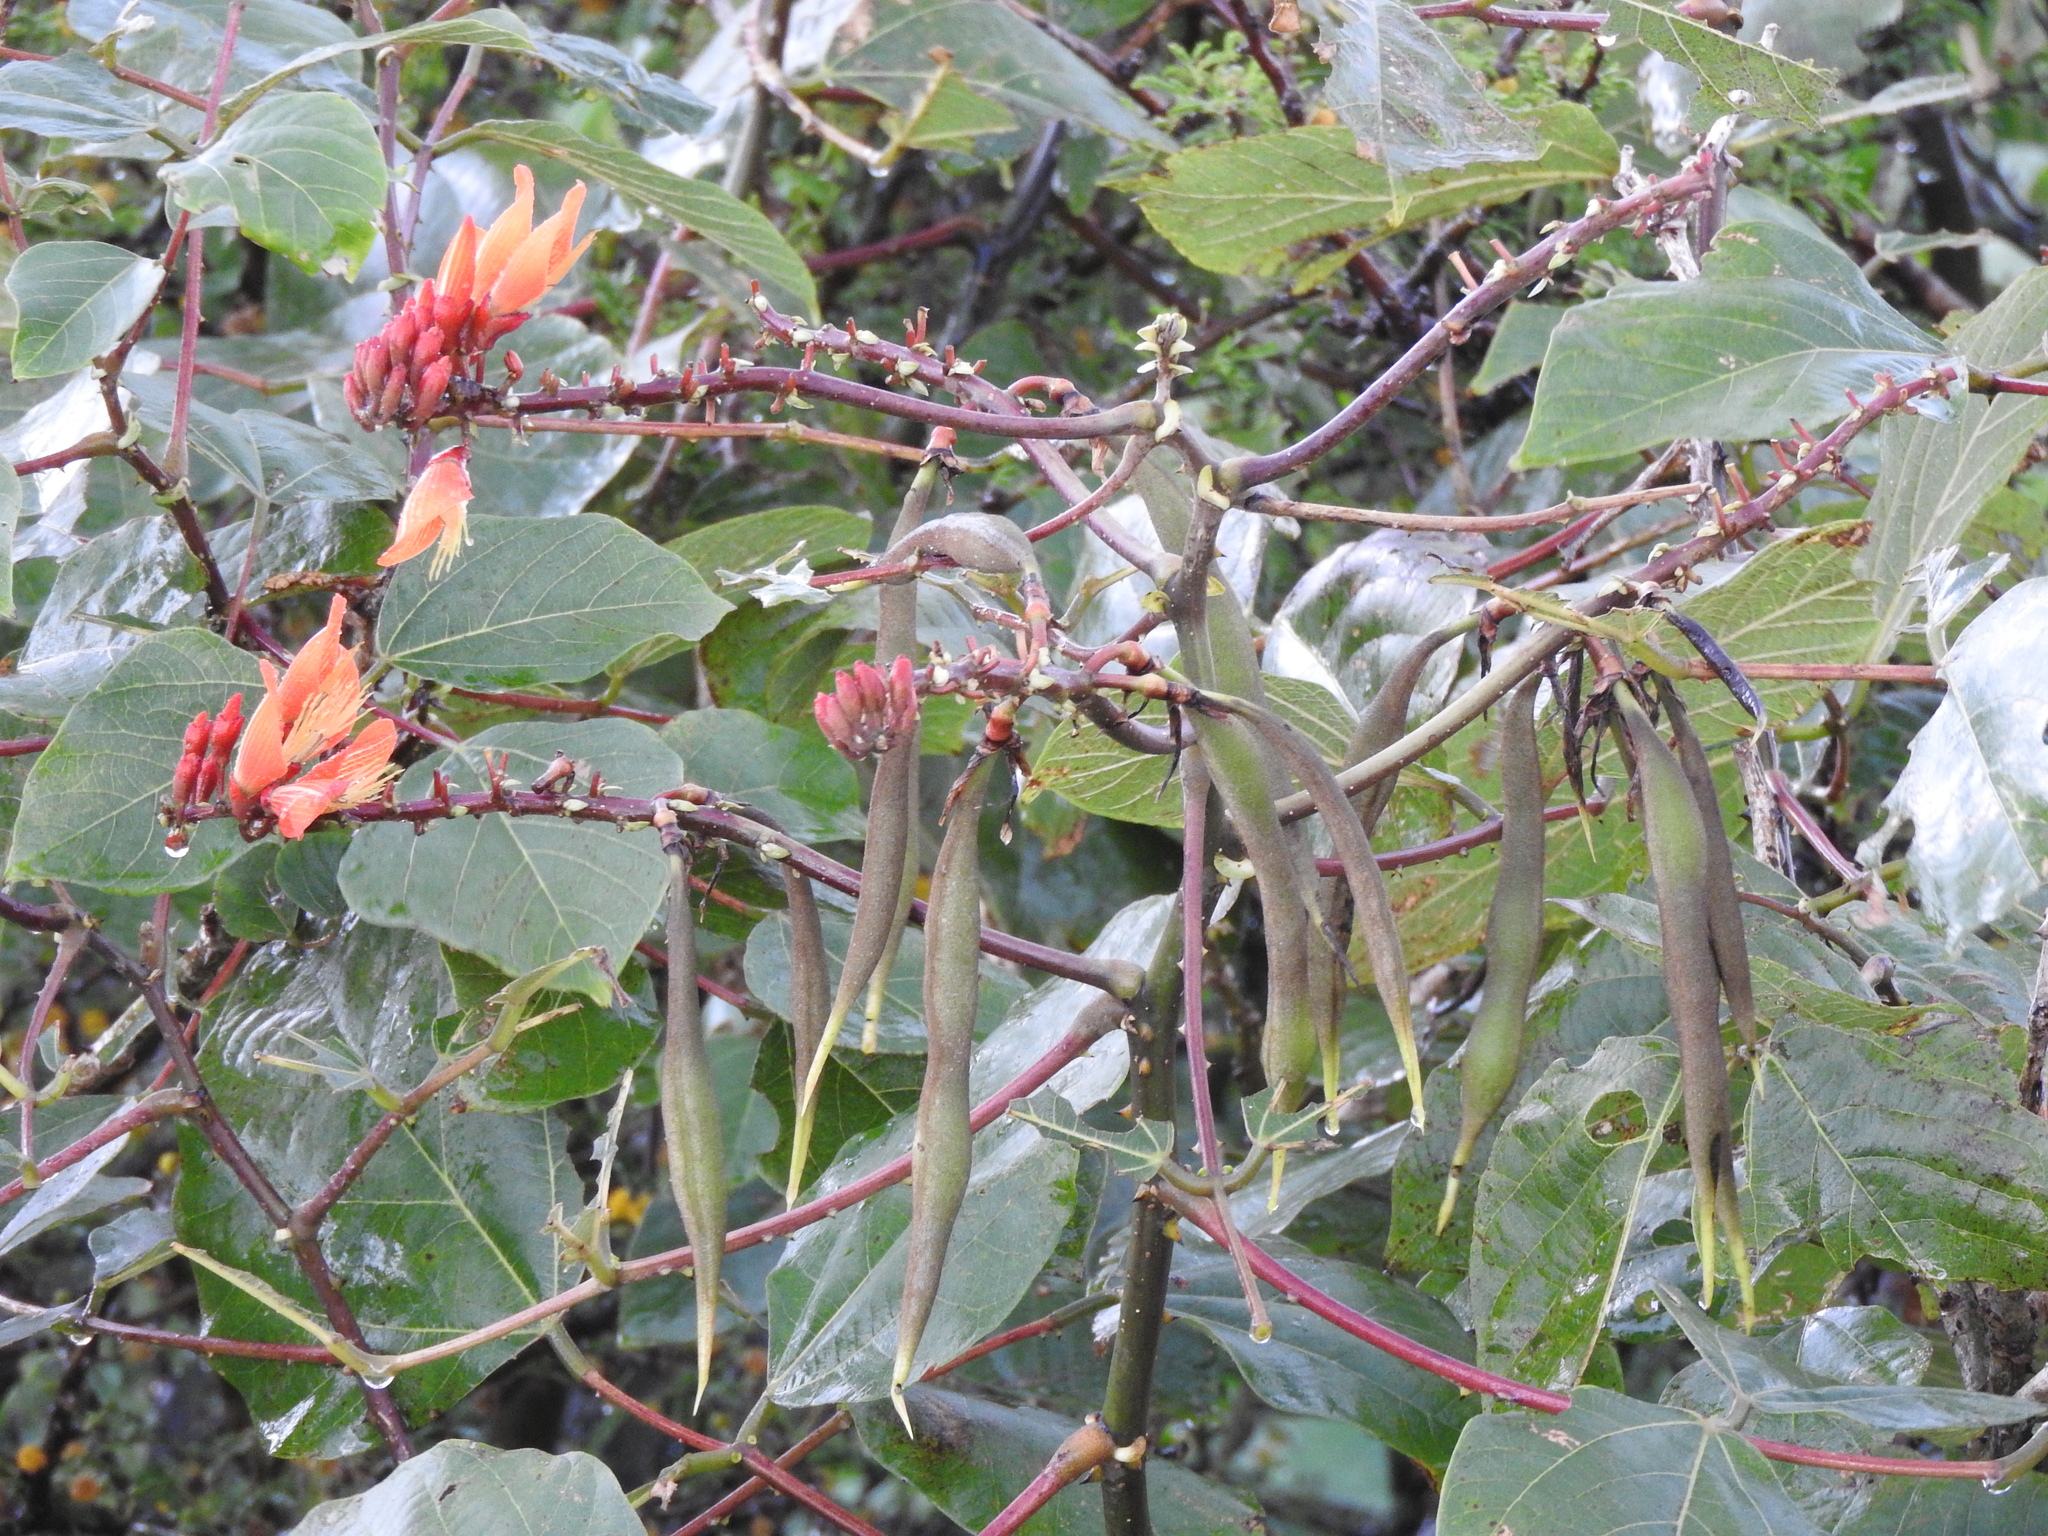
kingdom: Plantae
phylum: Tracheophyta
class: Magnoliopsida
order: Fabales
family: Fabaceae
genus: Erythrina
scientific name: Erythrina breviflora
